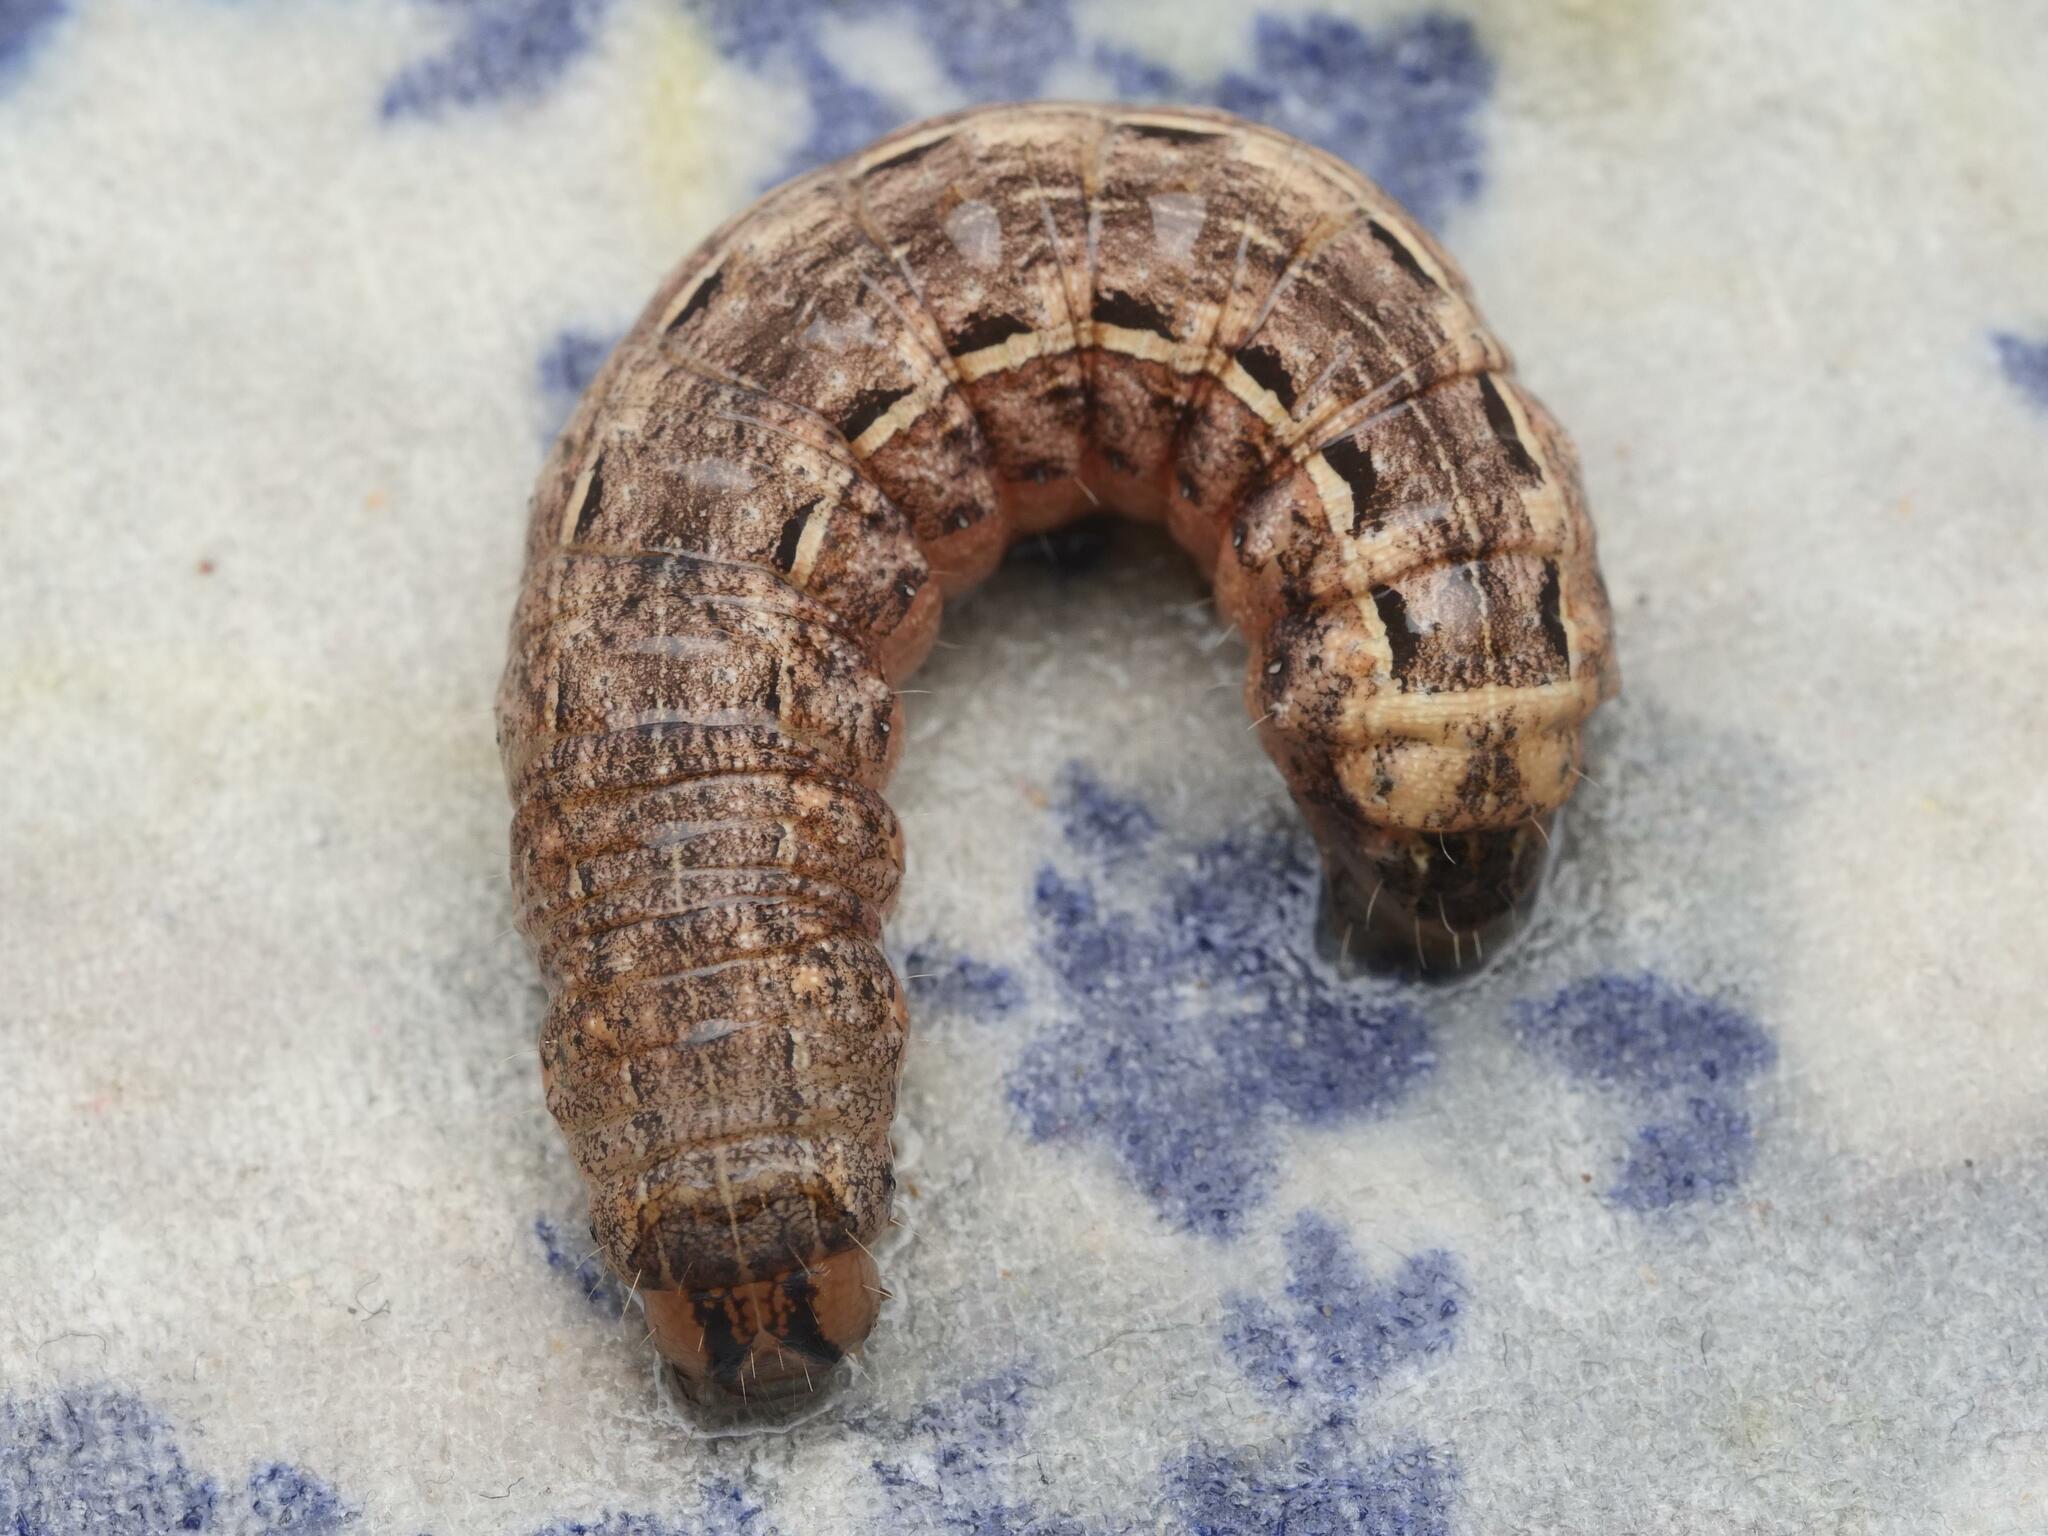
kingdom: Animalia
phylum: Arthropoda
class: Insecta
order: Lepidoptera
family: Noctuidae
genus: Noctua
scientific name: Noctua pronuba
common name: Large yellow underwing
